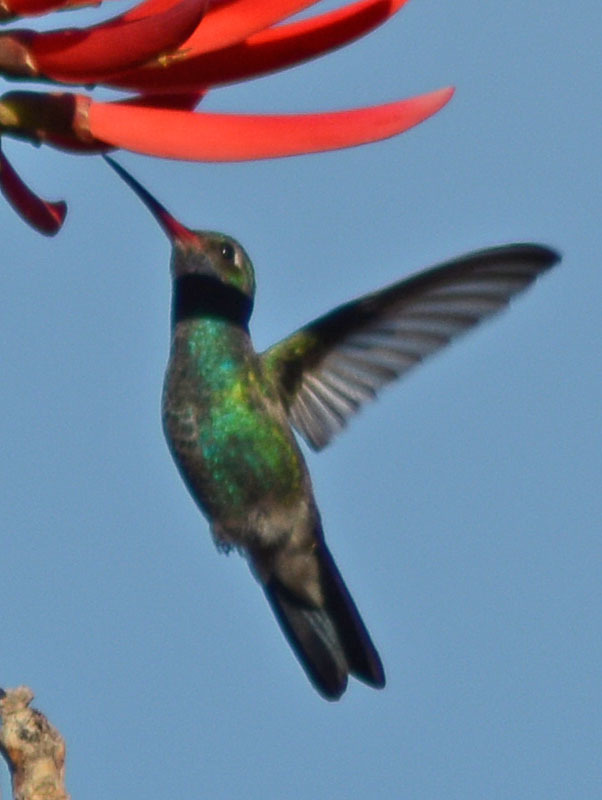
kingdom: Animalia
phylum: Chordata
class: Aves
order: Apodiformes
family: Trochilidae
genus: Cynanthus
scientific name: Cynanthus latirostris
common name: Broad-billed hummingbird
